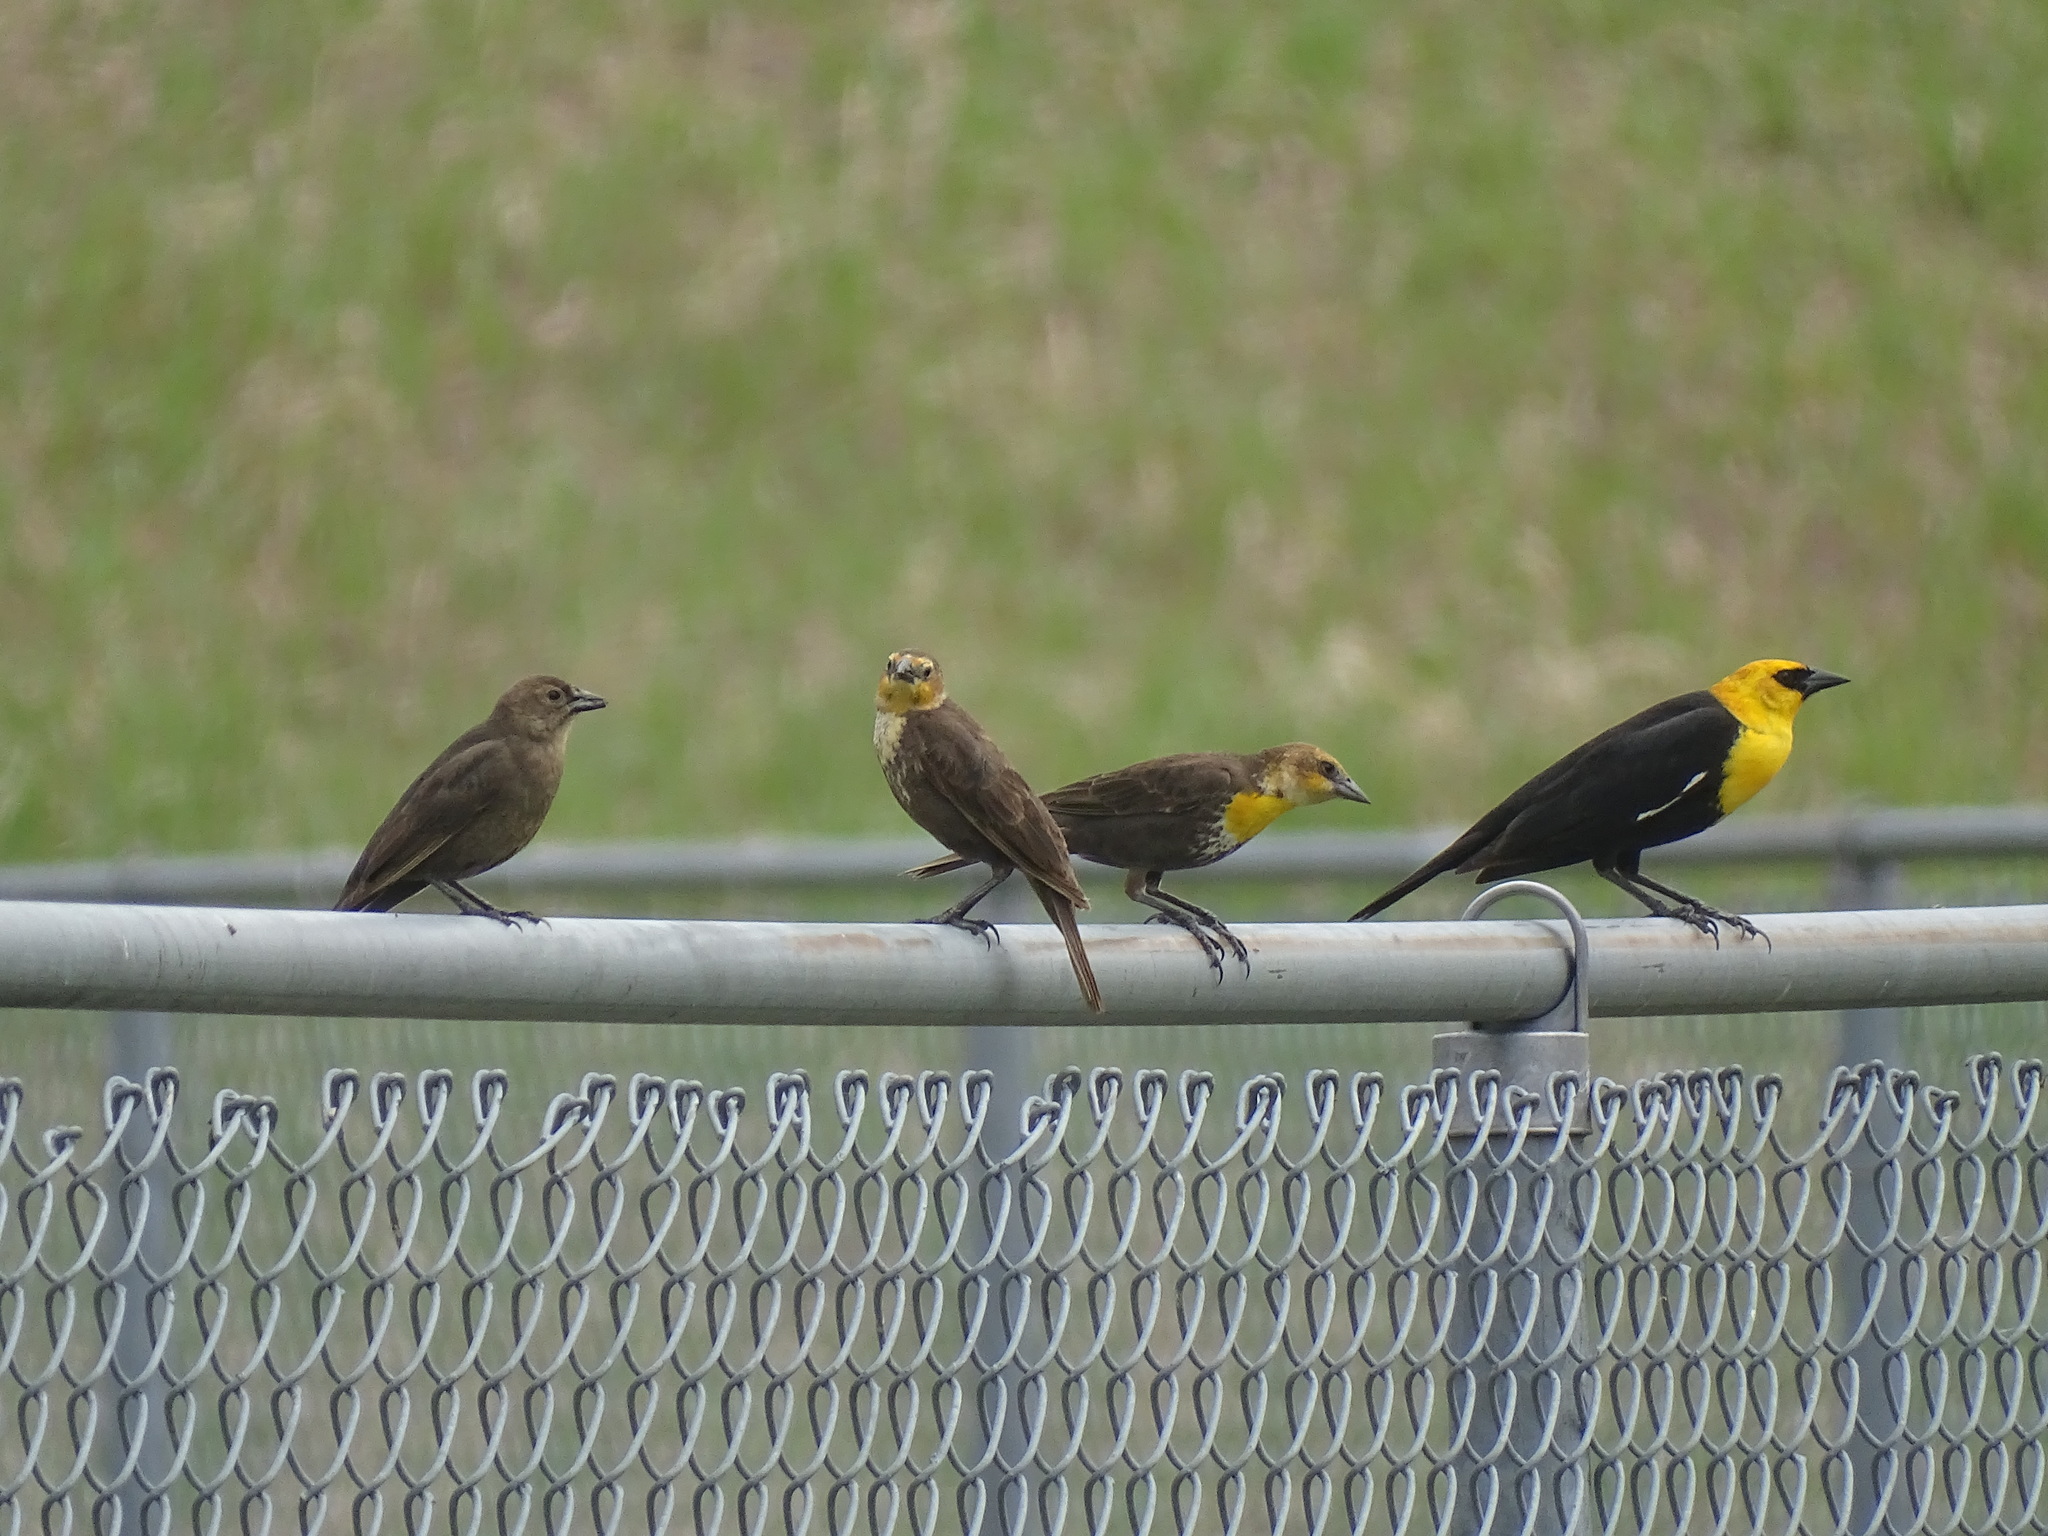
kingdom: Animalia
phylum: Chordata
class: Aves
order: Passeriformes
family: Icteridae
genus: Molothrus
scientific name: Molothrus ater
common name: Brown-headed cowbird
